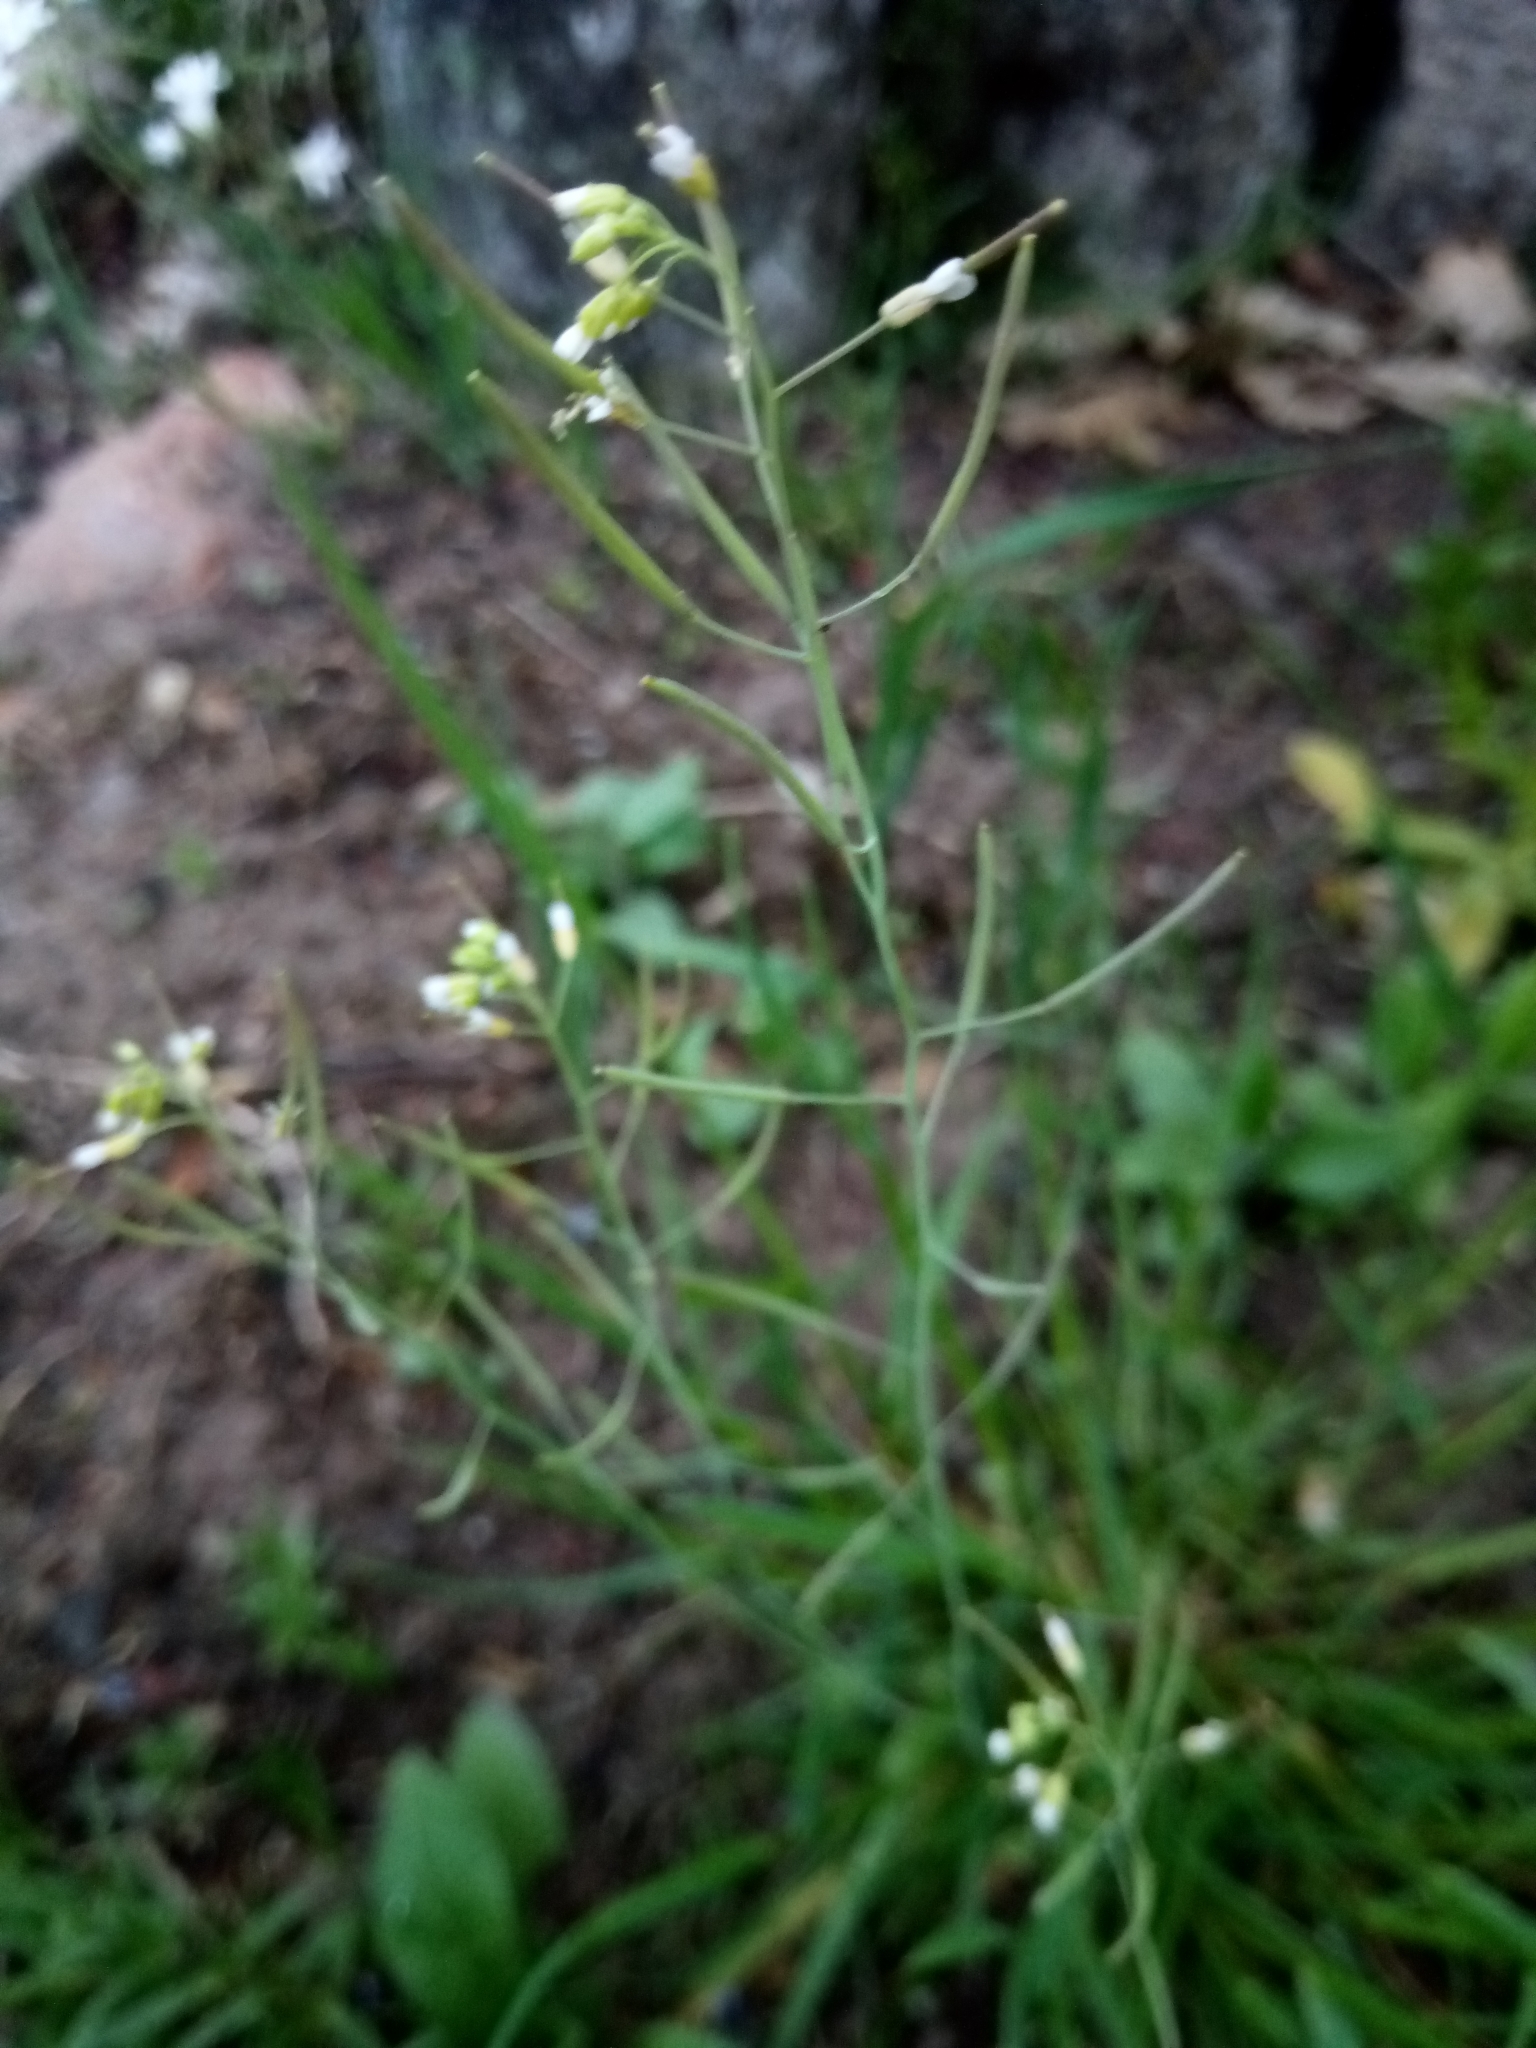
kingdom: Plantae
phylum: Tracheophyta
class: Magnoliopsida
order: Brassicales
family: Brassicaceae
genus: Arabidopsis
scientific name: Arabidopsis thaliana
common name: Thale cress
